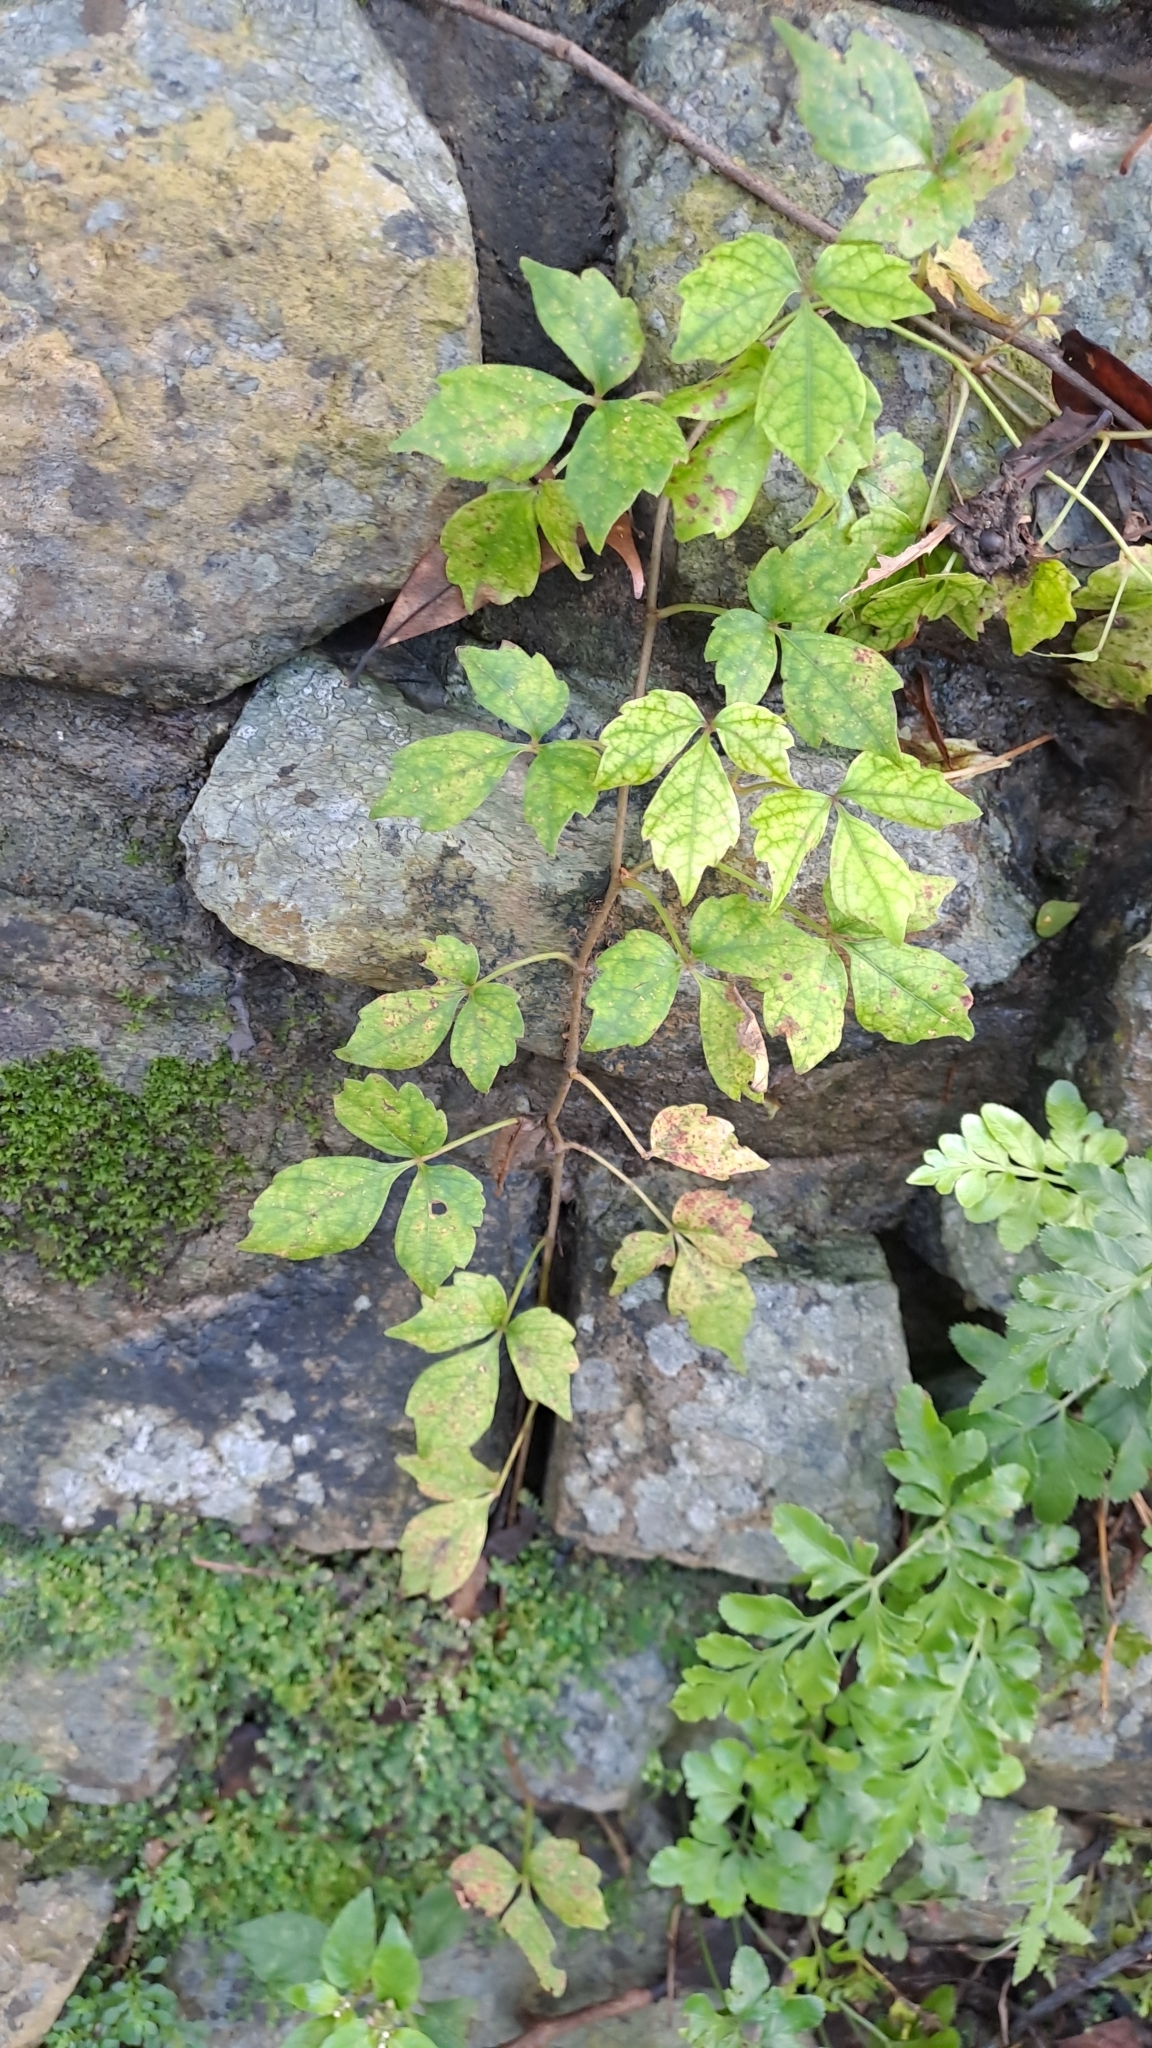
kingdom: Plantae
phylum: Tracheophyta
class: Magnoliopsida
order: Vitales
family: Vitaceae
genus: Parthenocissus
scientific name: Parthenocissus dalzielii
